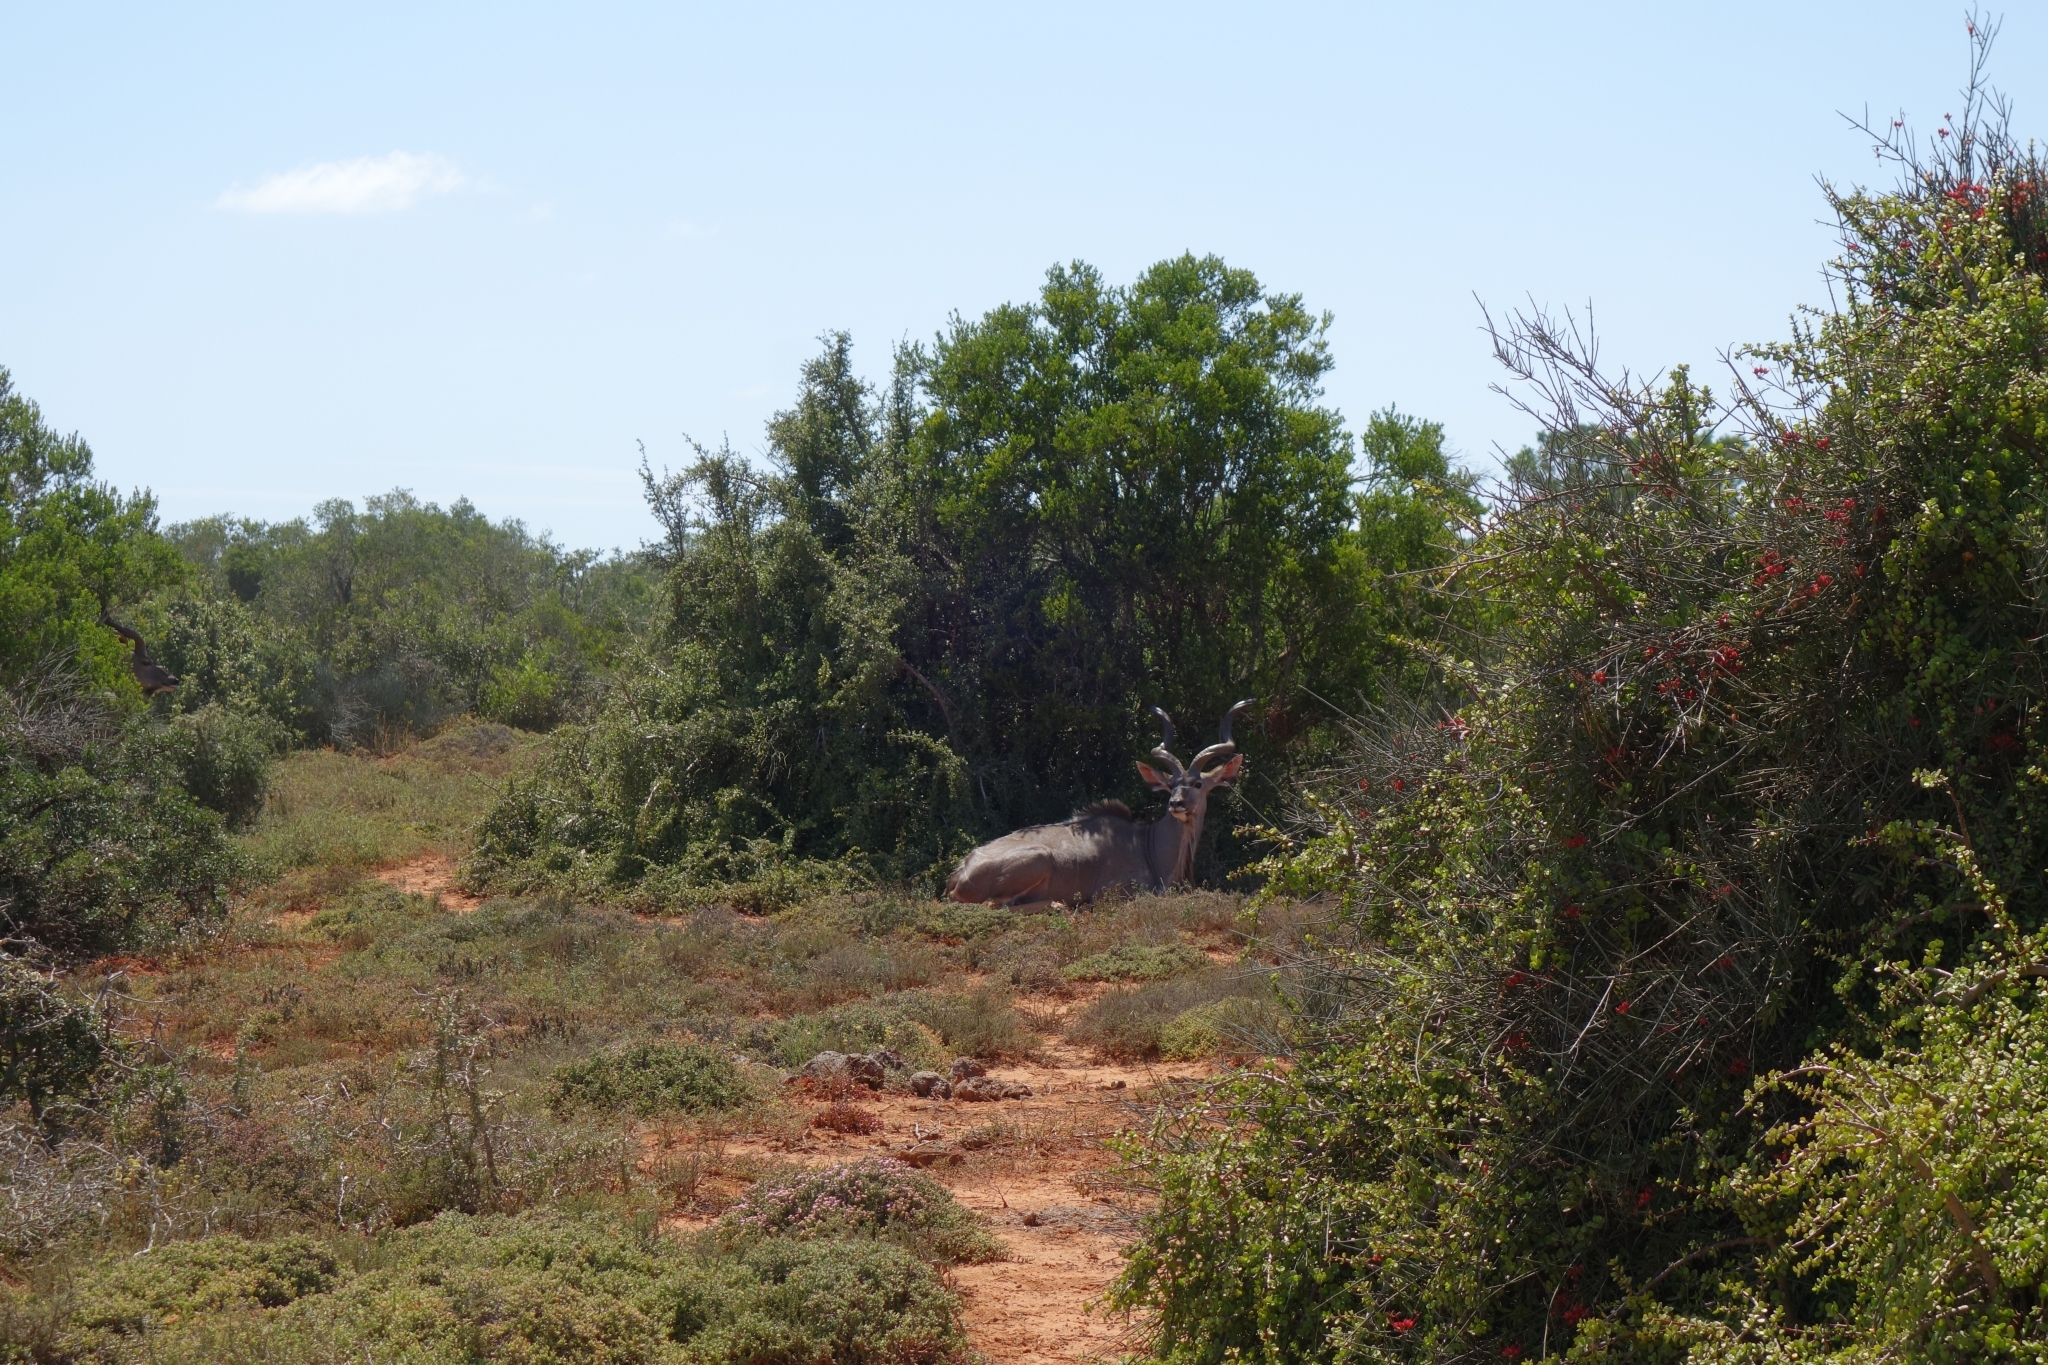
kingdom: Animalia
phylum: Chordata
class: Mammalia
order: Artiodactyla
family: Bovidae
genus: Tragelaphus
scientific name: Tragelaphus strepsiceros
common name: Greater kudu
